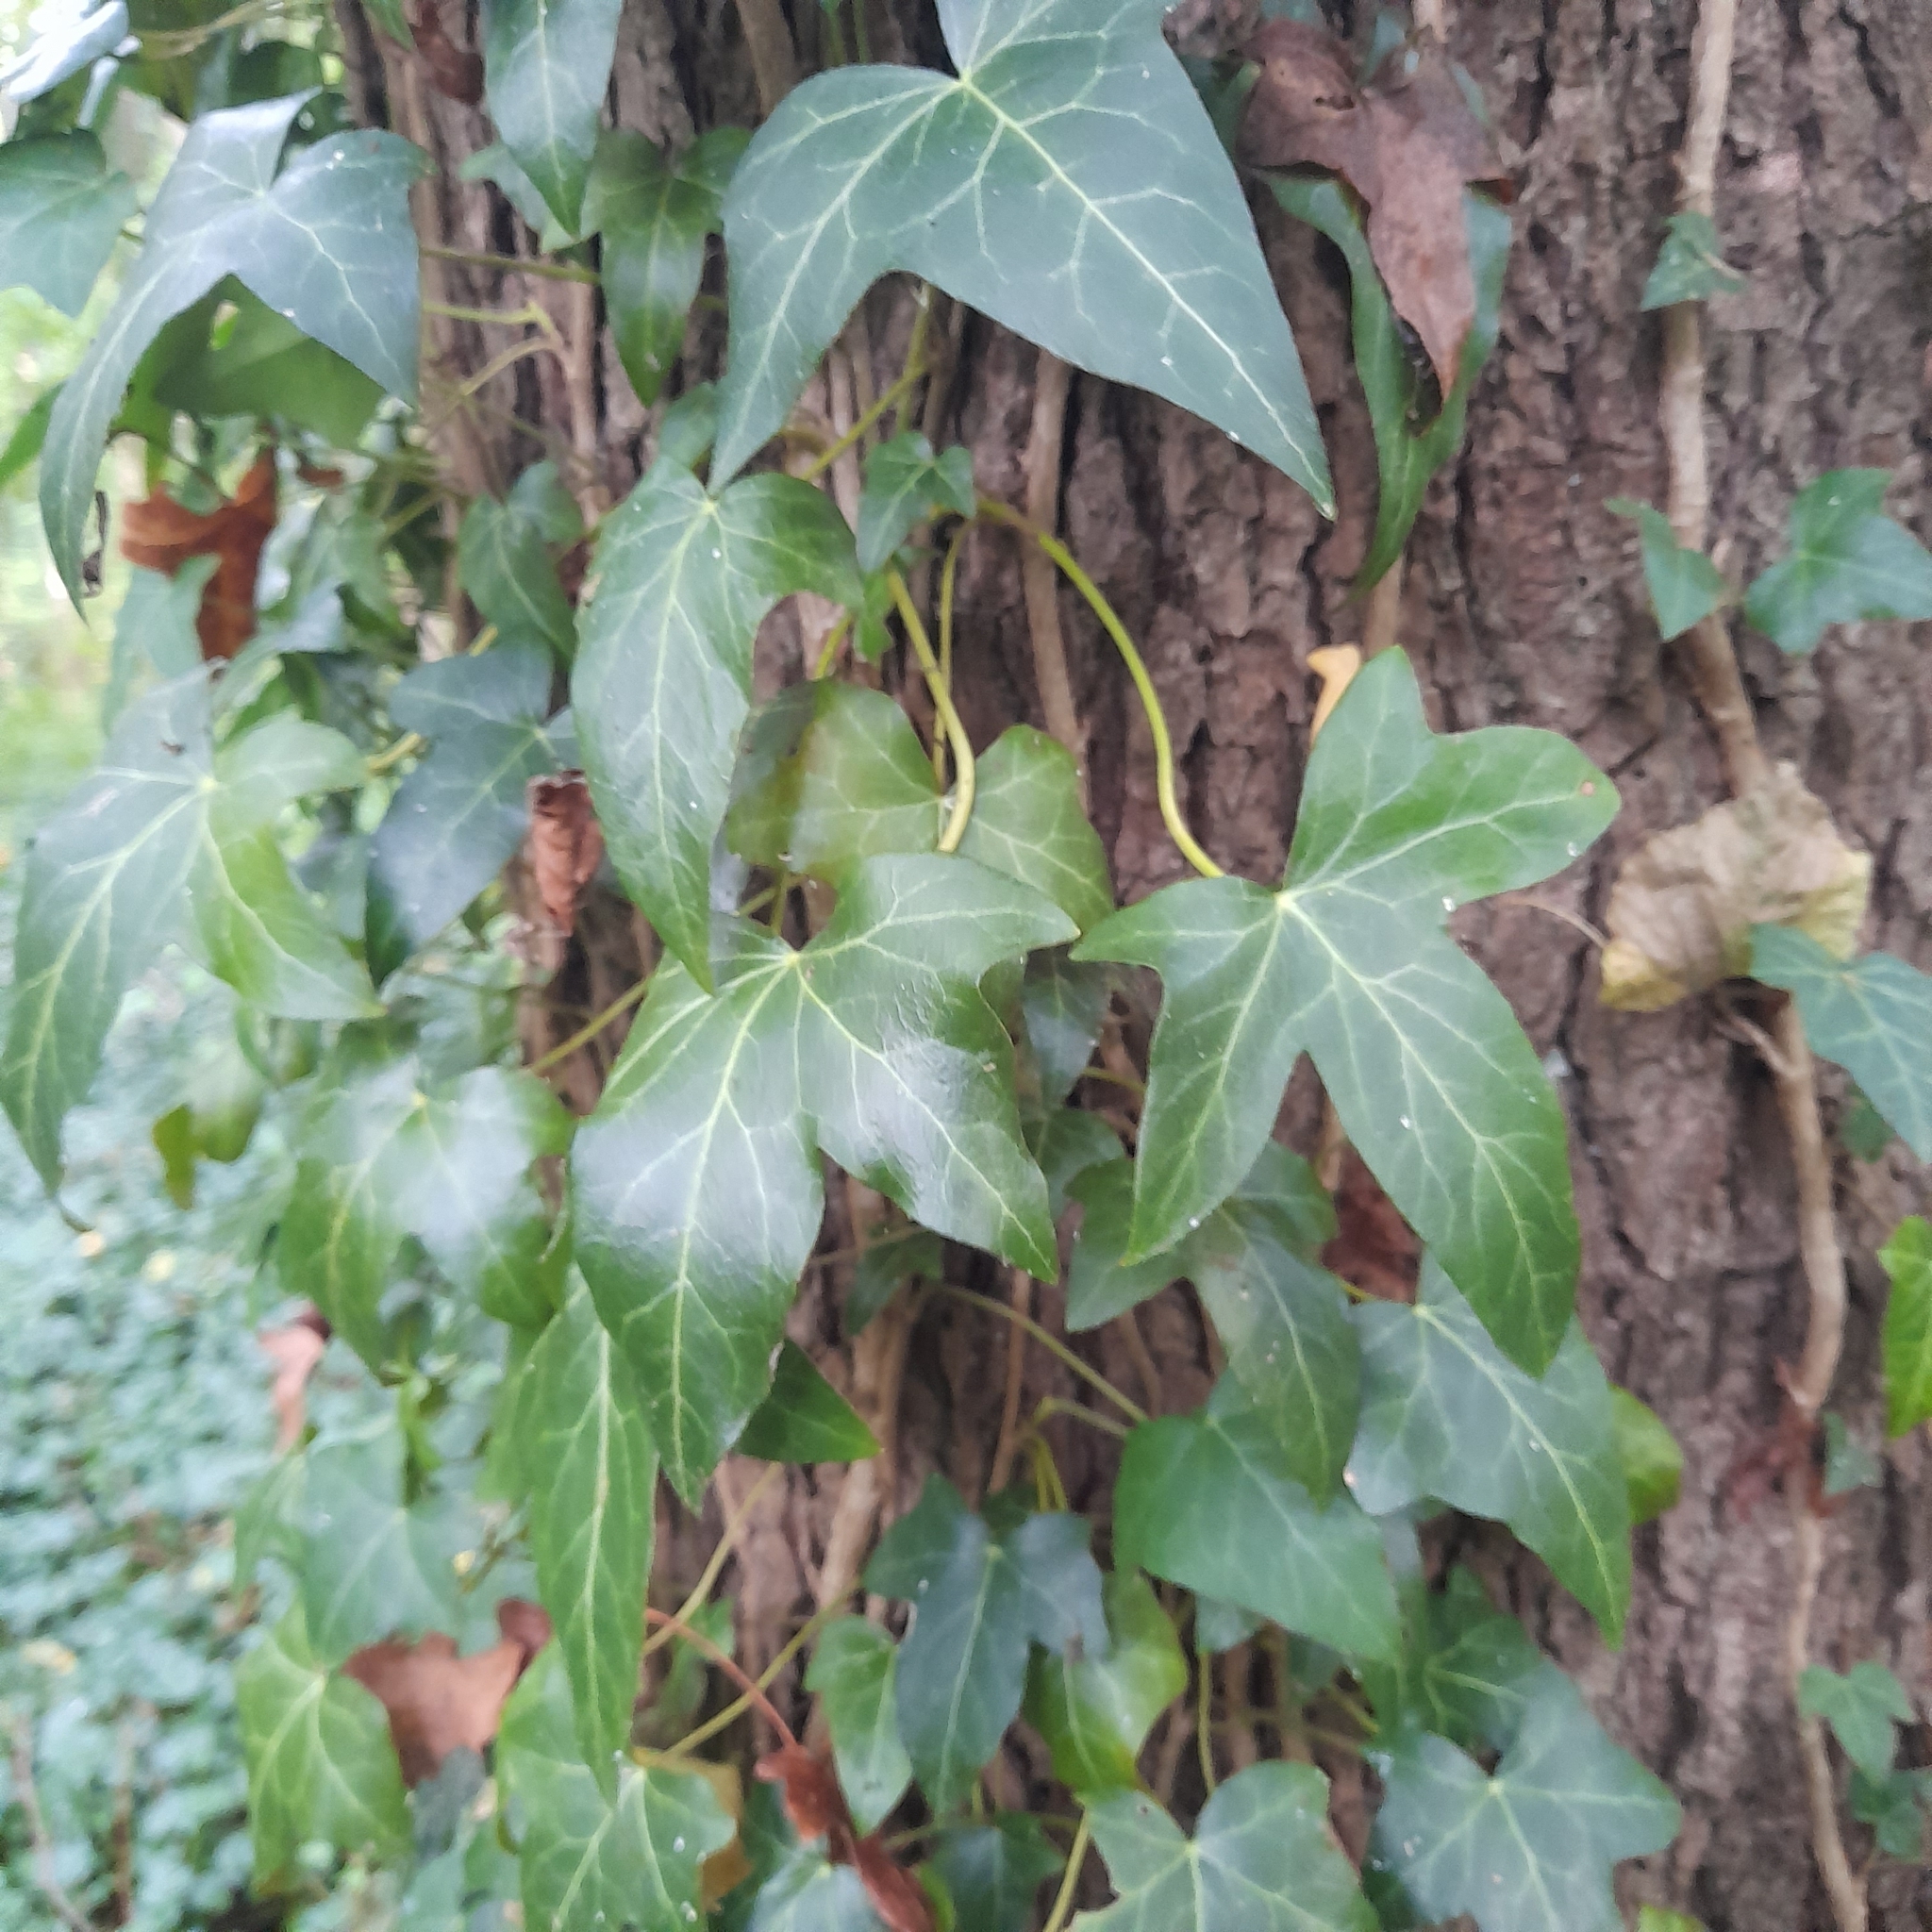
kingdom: Plantae
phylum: Tracheophyta
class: Magnoliopsida
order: Apiales
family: Araliaceae
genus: Hedera
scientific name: Hedera helix
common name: Ivy
